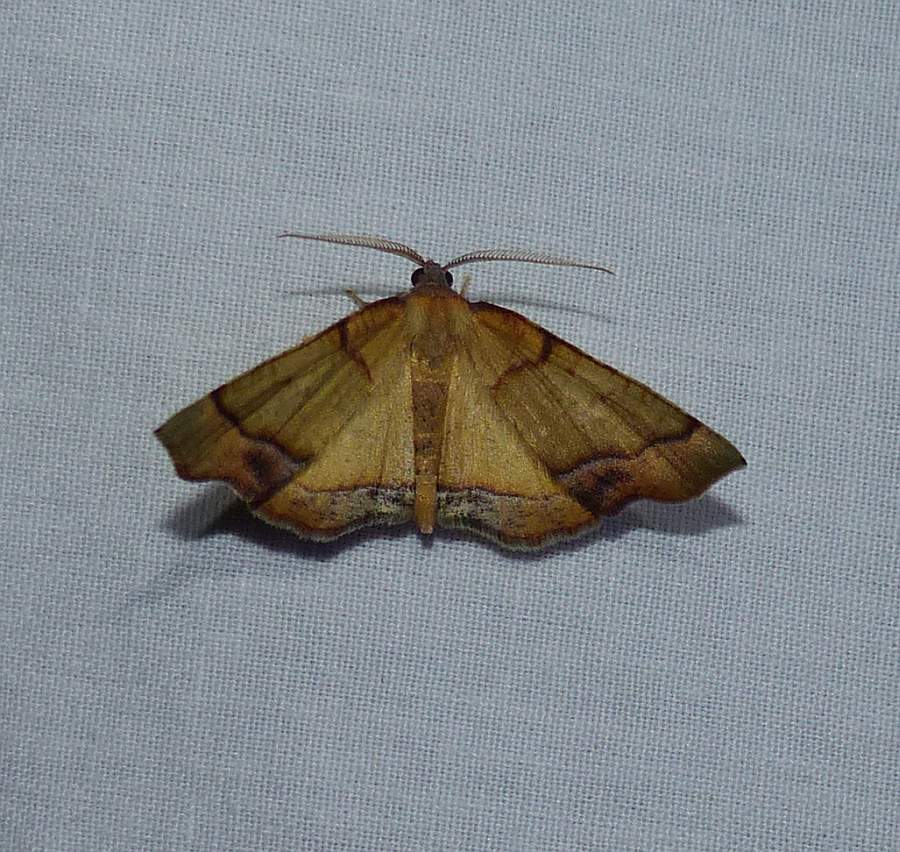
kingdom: Animalia
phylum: Arthropoda
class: Insecta
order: Lepidoptera
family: Geometridae
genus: Plagodis
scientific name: Plagodis phlogosaria
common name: Straight-lined plagodis
